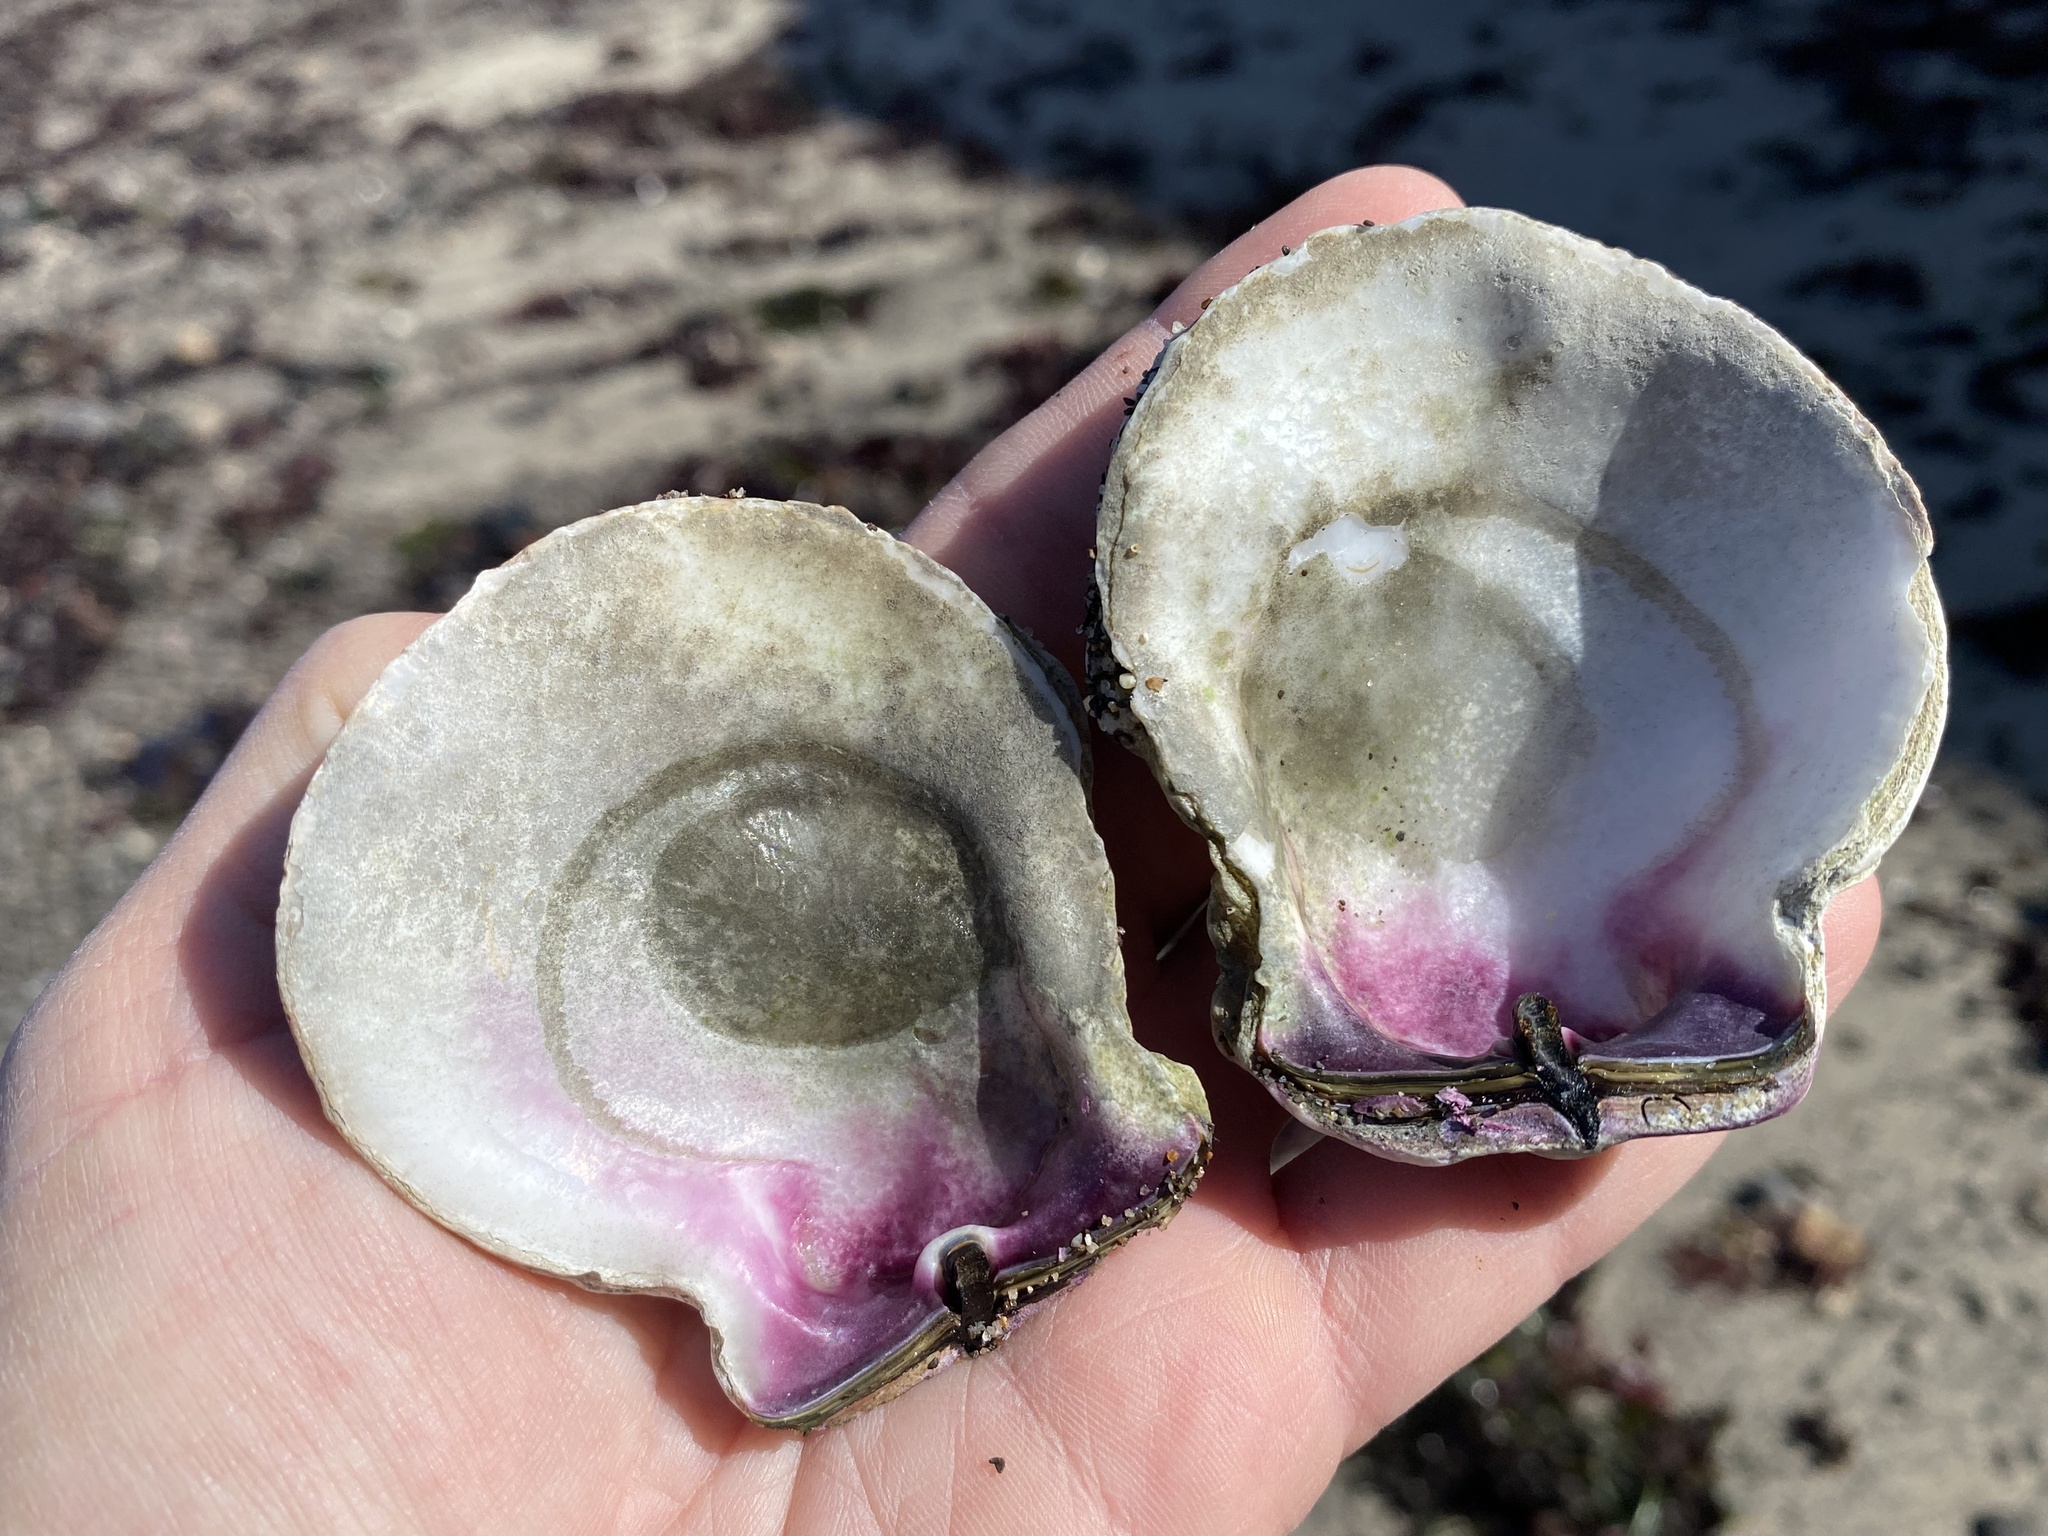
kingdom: Animalia
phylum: Mollusca
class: Bivalvia
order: Pectinida
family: Pectinidae
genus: Crassadoma
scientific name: Crassadoma gigantea
